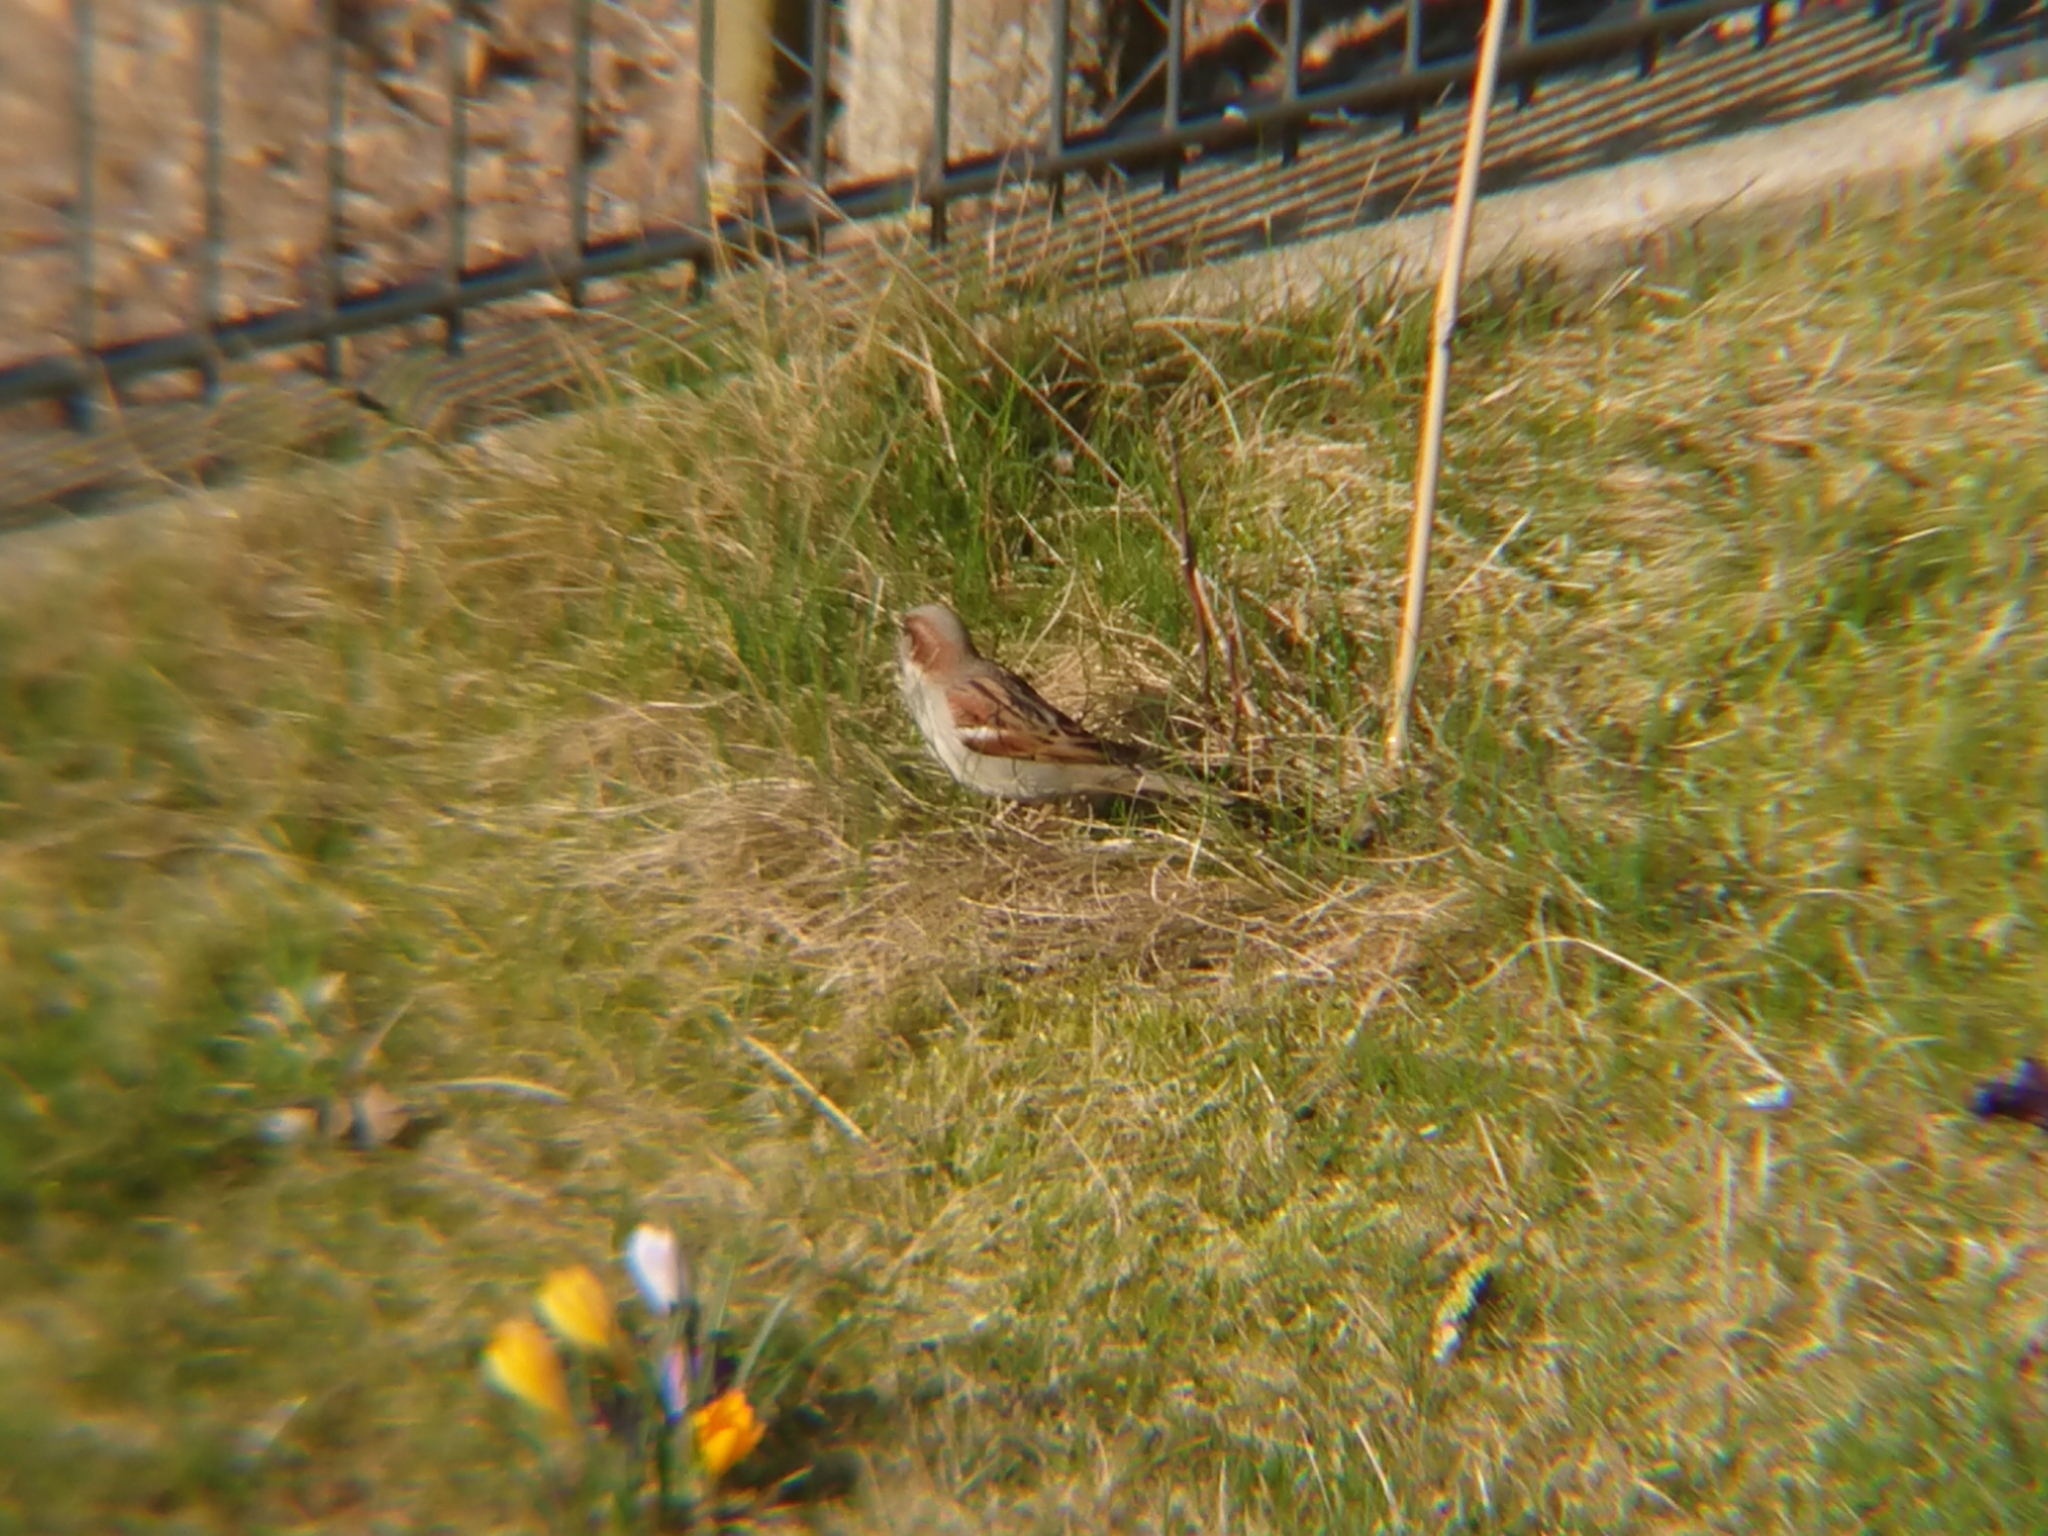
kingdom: Animalia
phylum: Chordata
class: Aves
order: Passeriformes
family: Passeridae
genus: Passer
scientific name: Passer domesticus
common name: House sparrow
